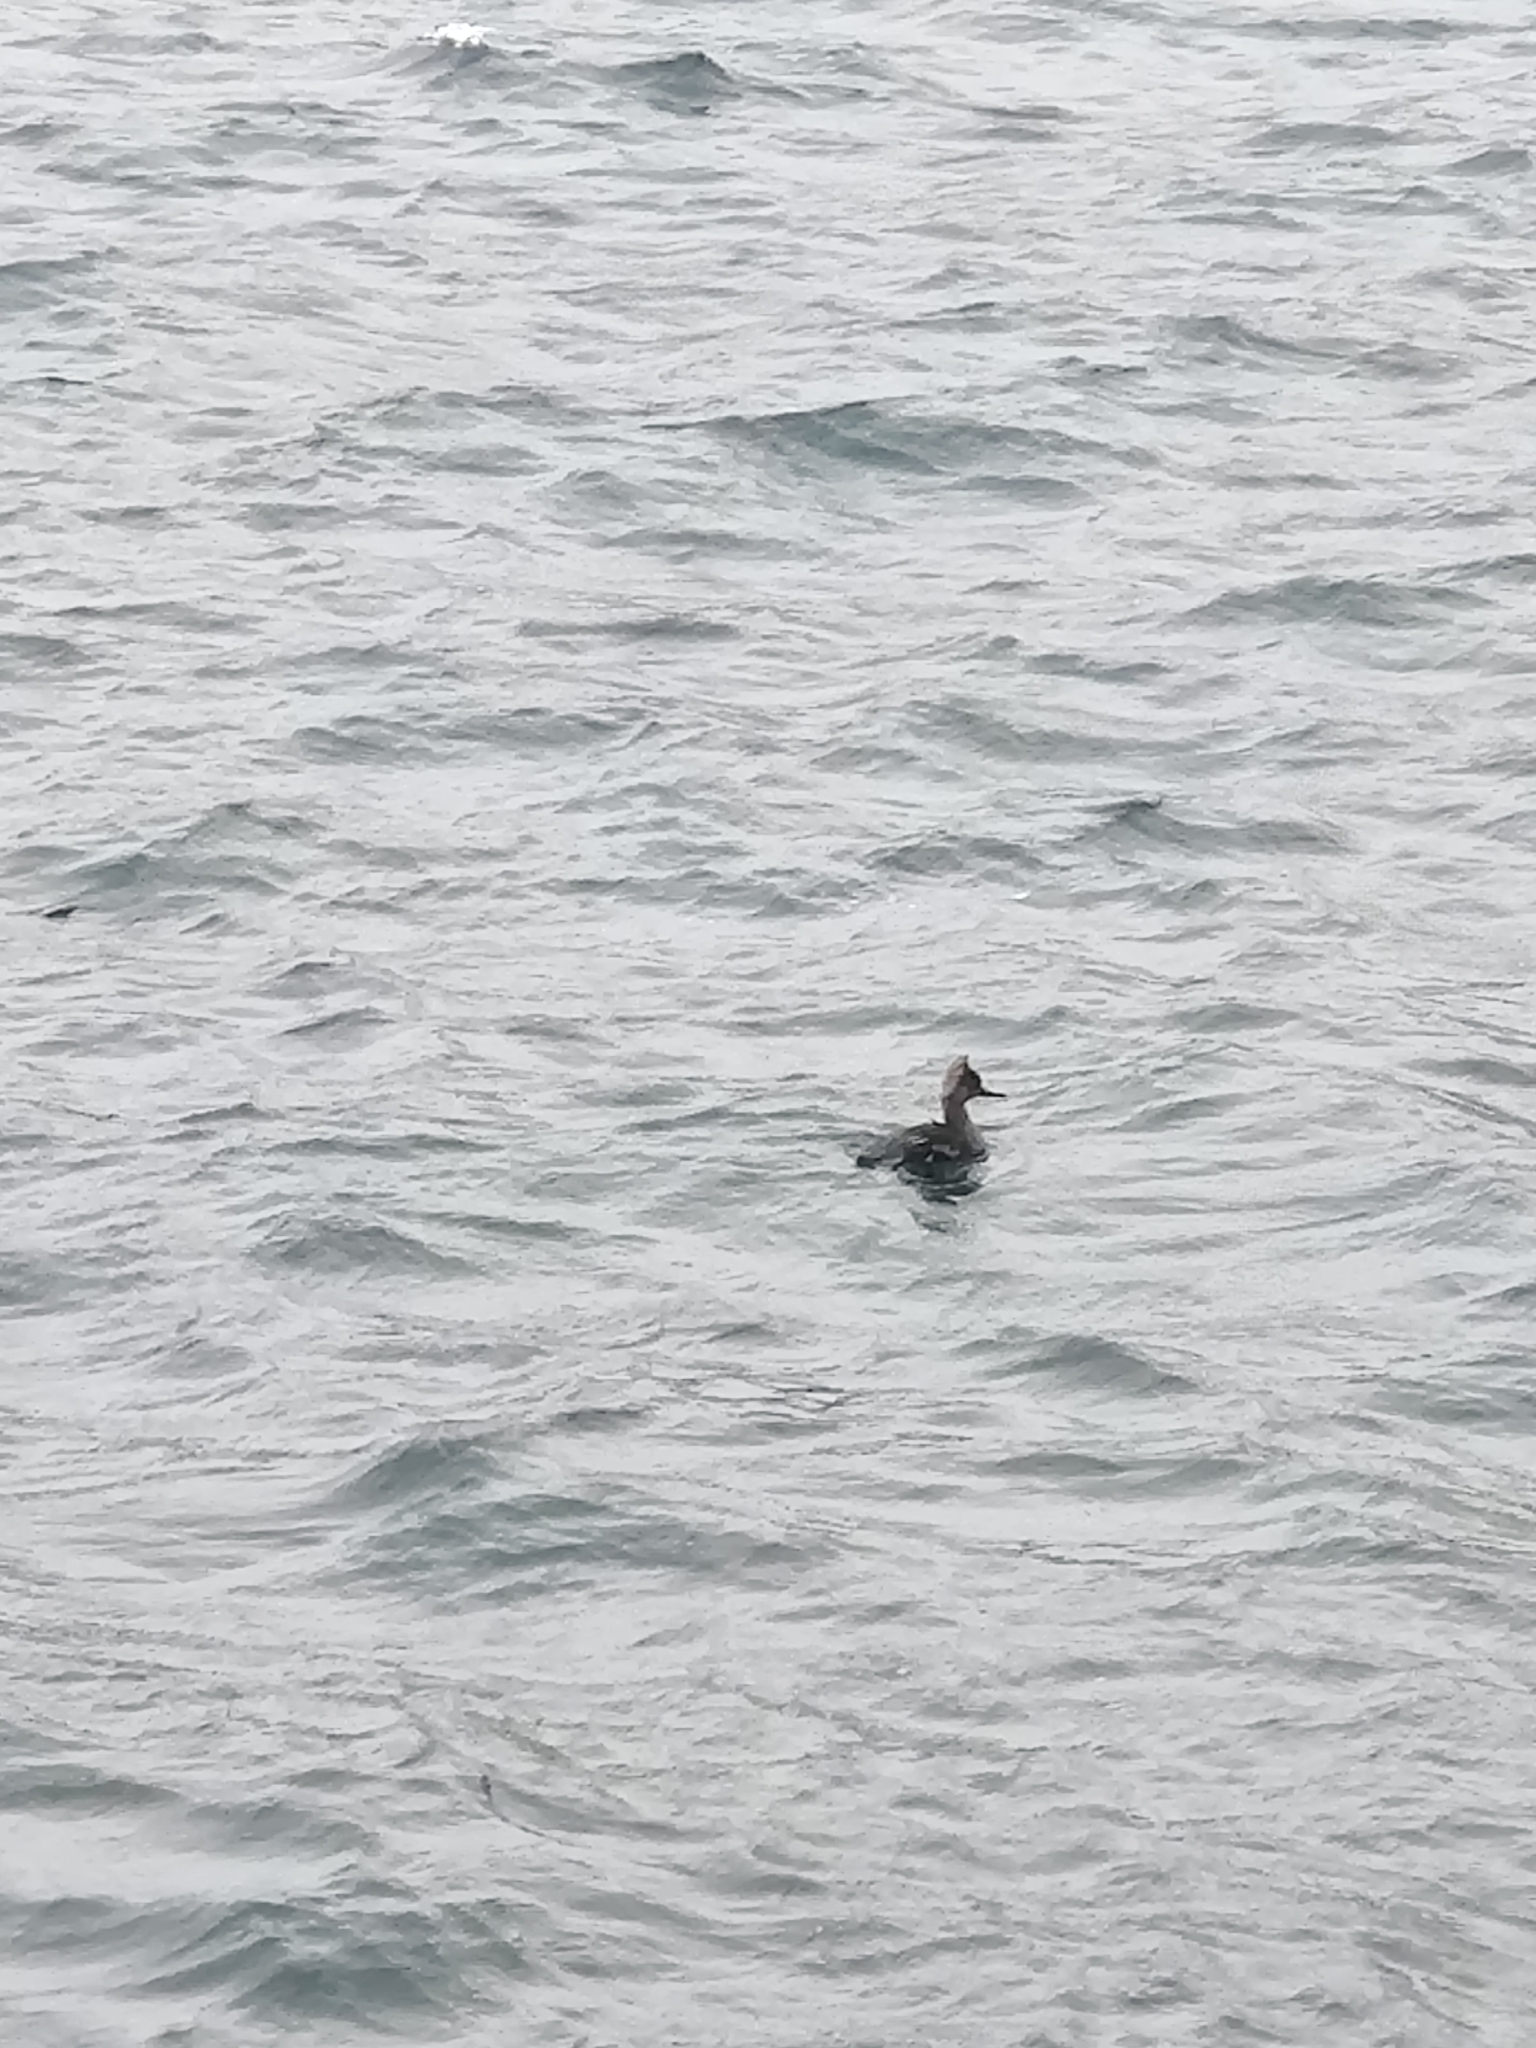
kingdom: Animalia
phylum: Chordata
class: Aves
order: Anseriformes
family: Anatidae
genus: Lophodytes
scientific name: Lophodytes cucullatus
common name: Hooded merganser
